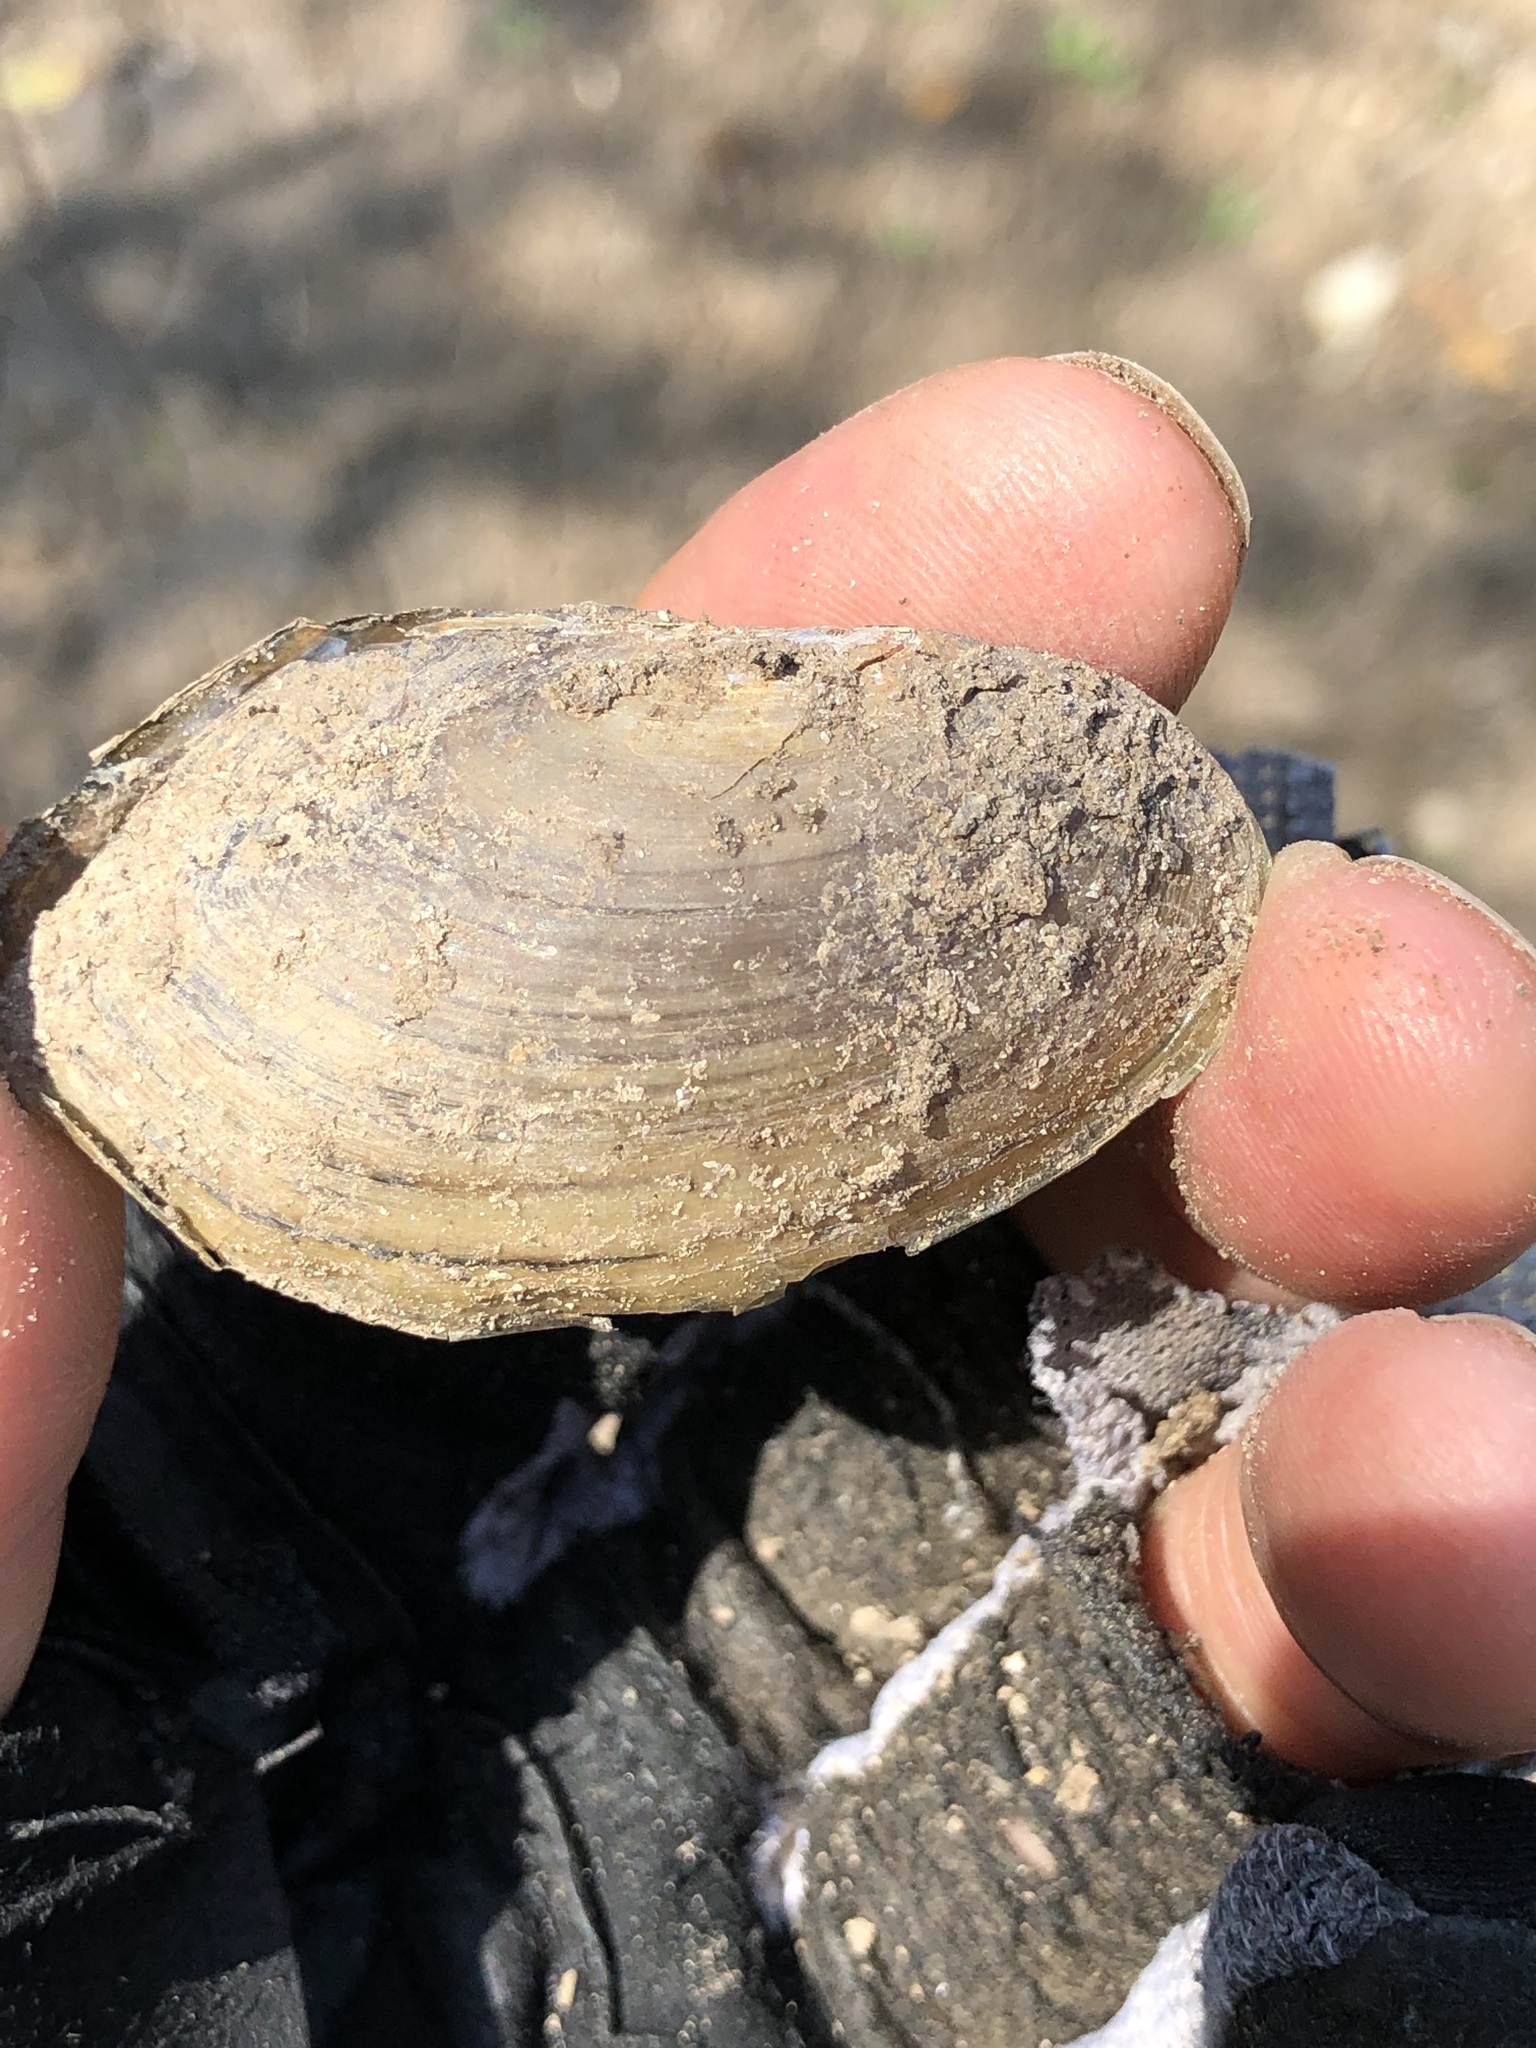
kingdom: Animalia
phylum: Mollusca
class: Bivalvia
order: Unionida
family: Unionidae
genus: Utterbackia
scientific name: Utterbackia imbecillis
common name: Paper pondshell
